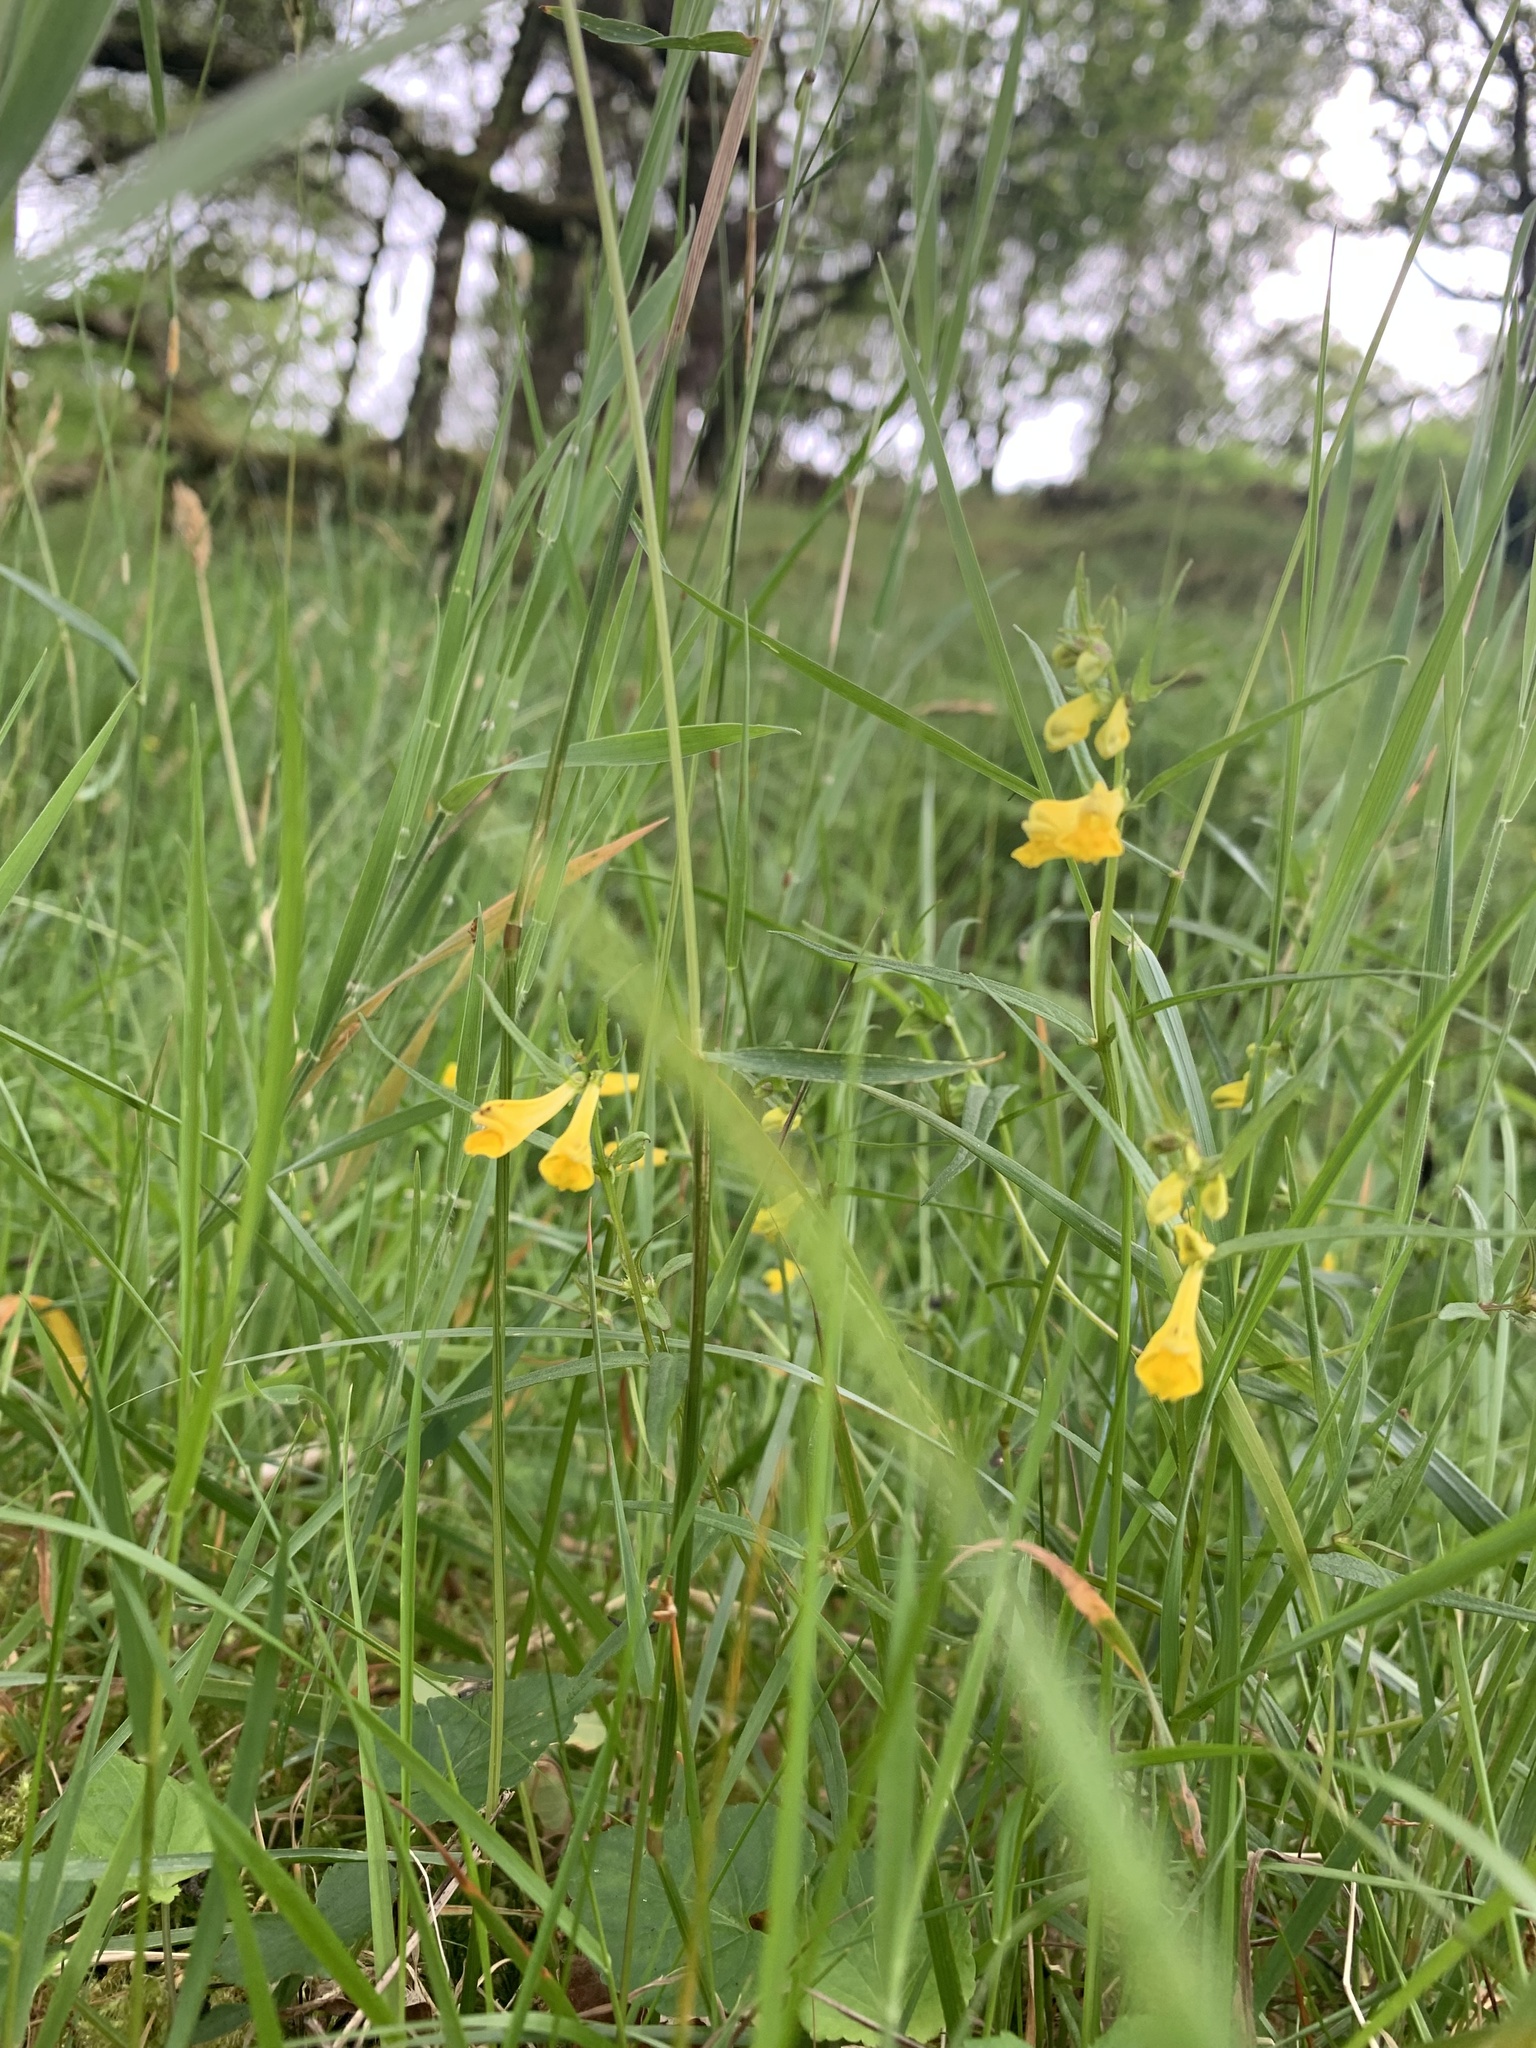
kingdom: Plantae
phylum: Tracheophyta
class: Magnoliopsida
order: Lamiales
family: Orobanchaceae
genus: Melampyrum
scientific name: Melampyrum pratense
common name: Common cow-wheat
